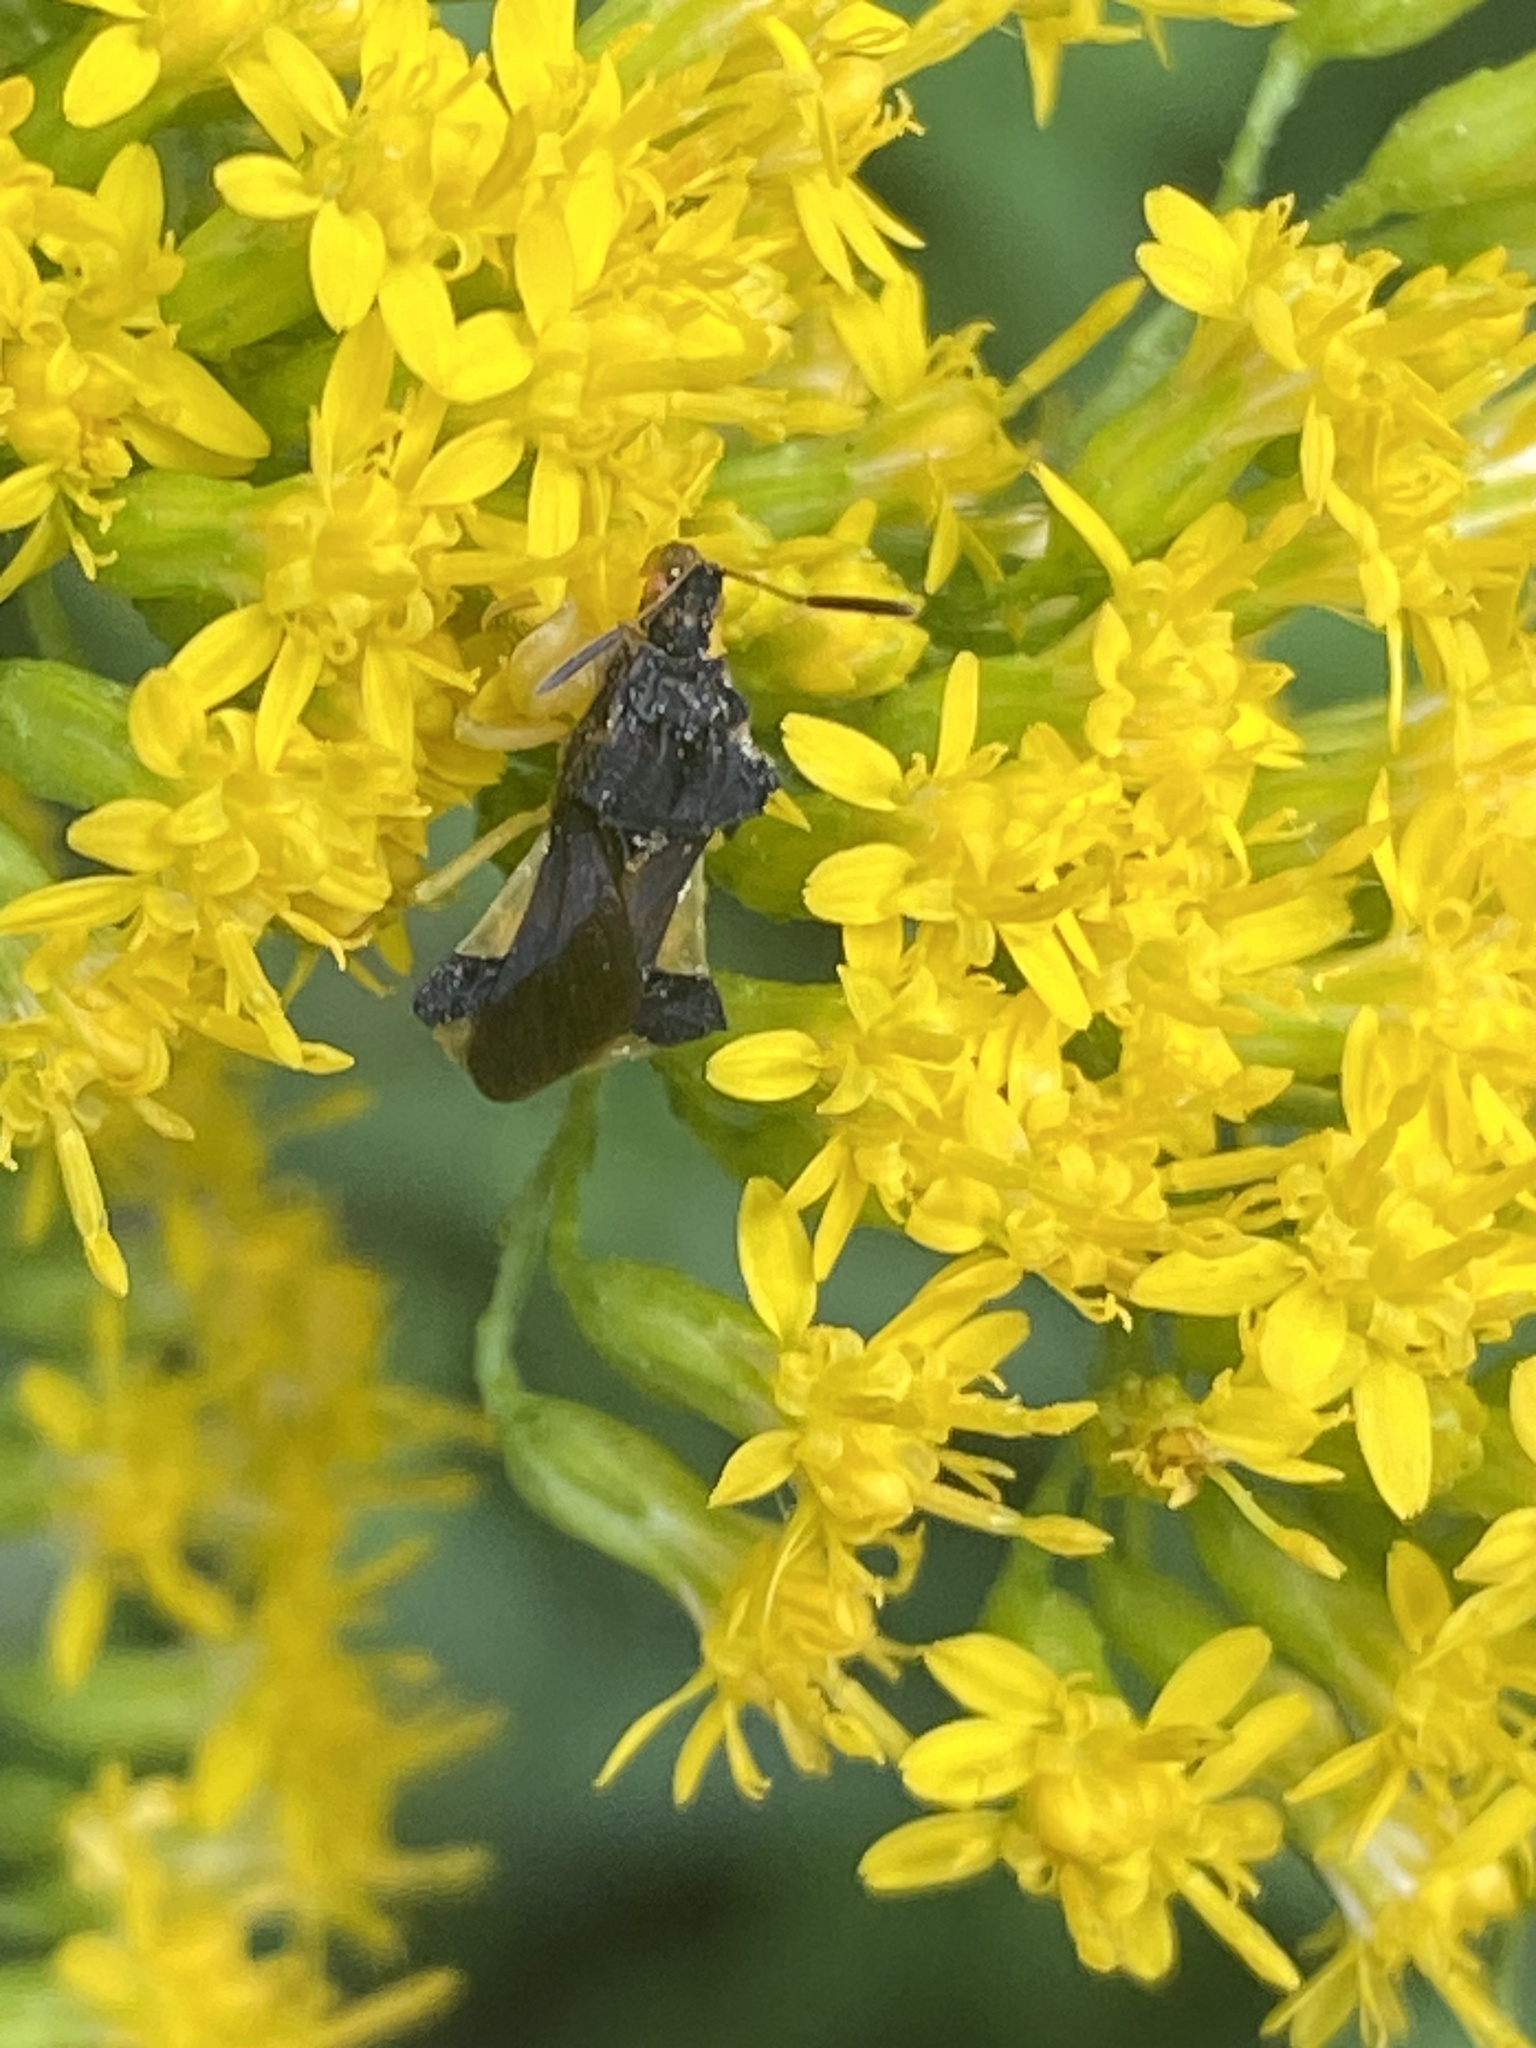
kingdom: Animalia
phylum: Arthropoda
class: Insecta
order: Hemiptera
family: Reduviidae
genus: Phymata
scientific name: Phymata pennsylvanica
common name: Pennsylvania ambush bug
